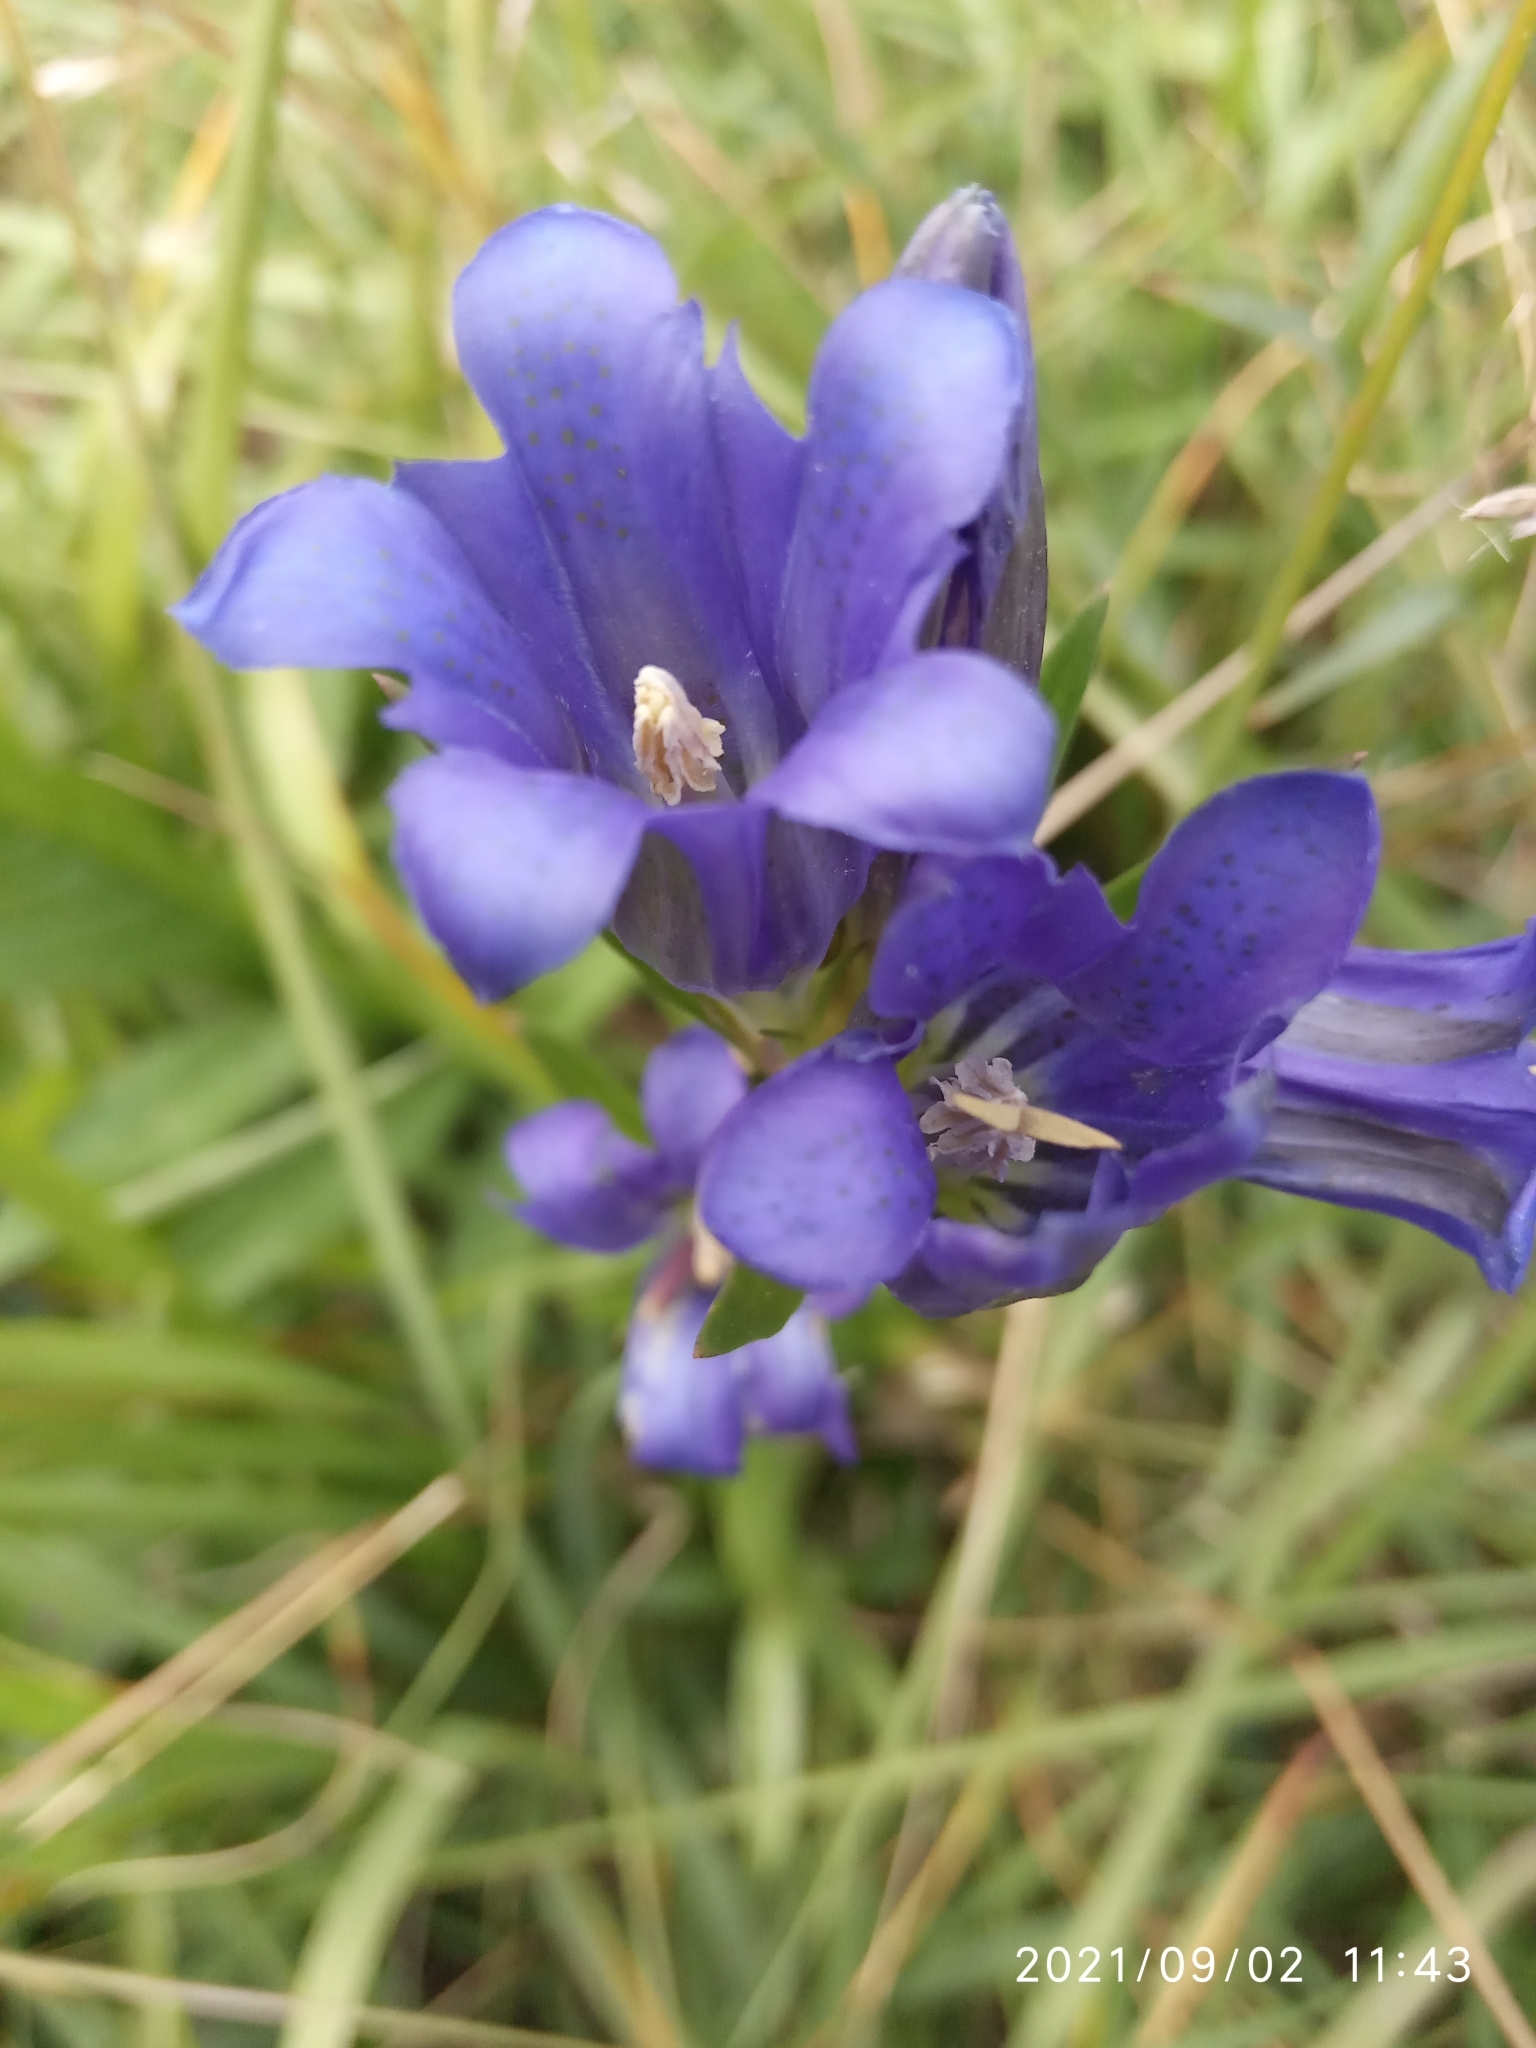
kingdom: Plantae
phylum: Tracheophyta
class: Magnoliopsida
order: Gentianales
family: Gentianaceae
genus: Gentiana
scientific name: Gentiana pneumonanthe
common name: Marsh gentian
